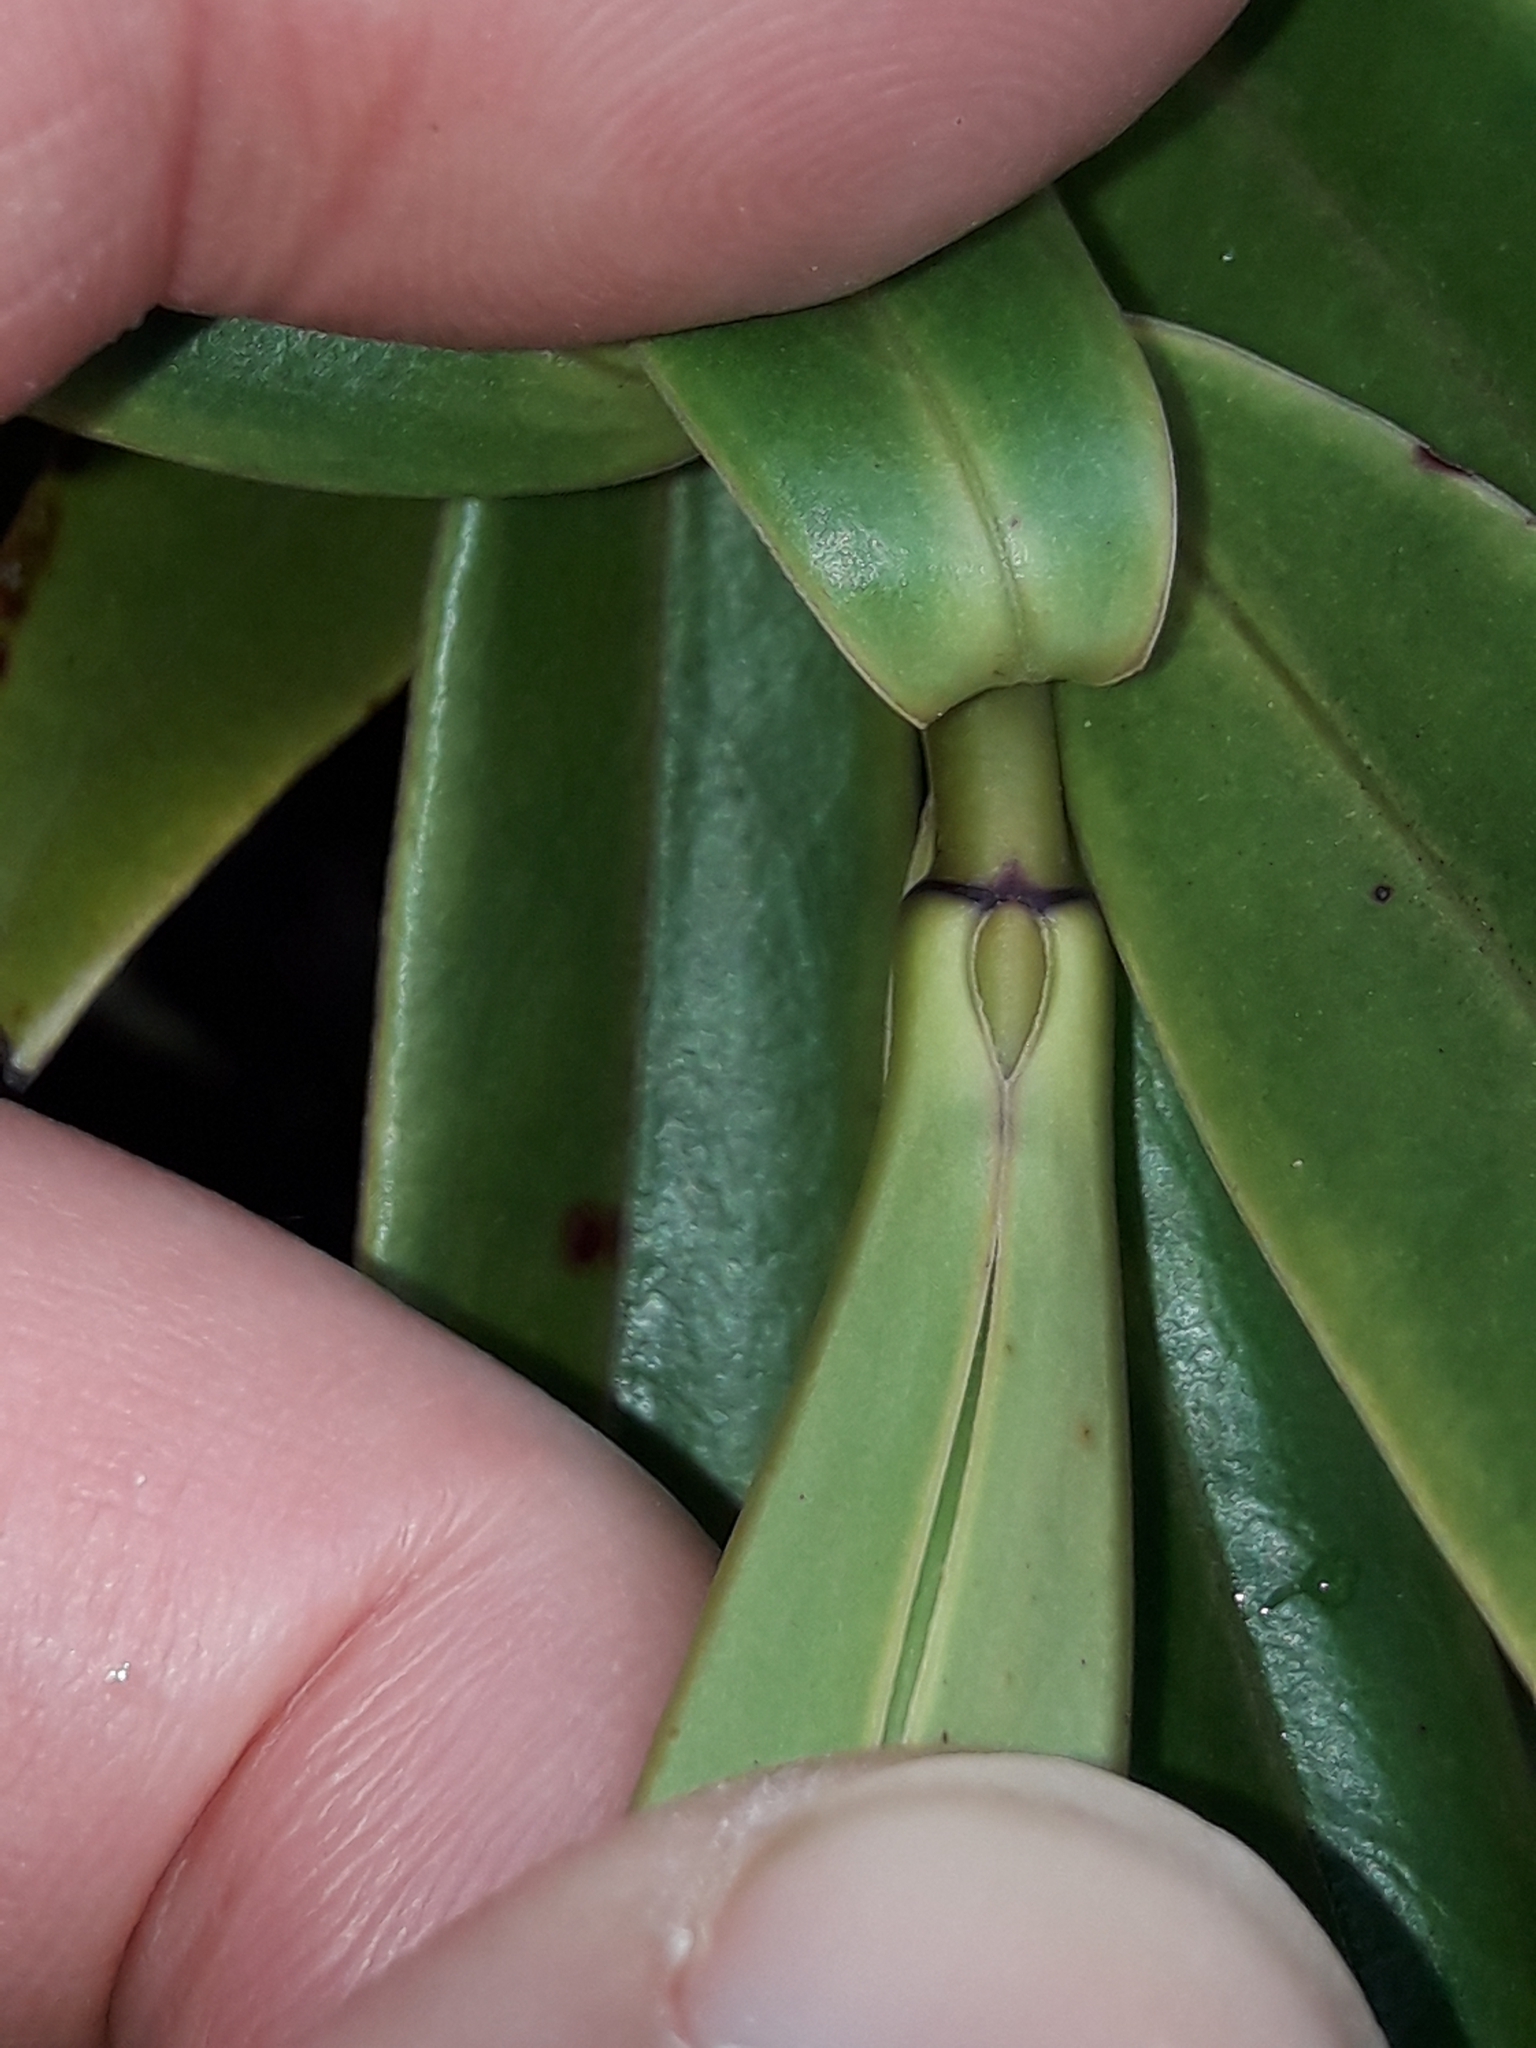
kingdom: Plantae
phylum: Tracheophyta
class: Magnoliopsida
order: Lamiales
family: Plantaginaceae
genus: Veronica
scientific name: Veronica corriganii
